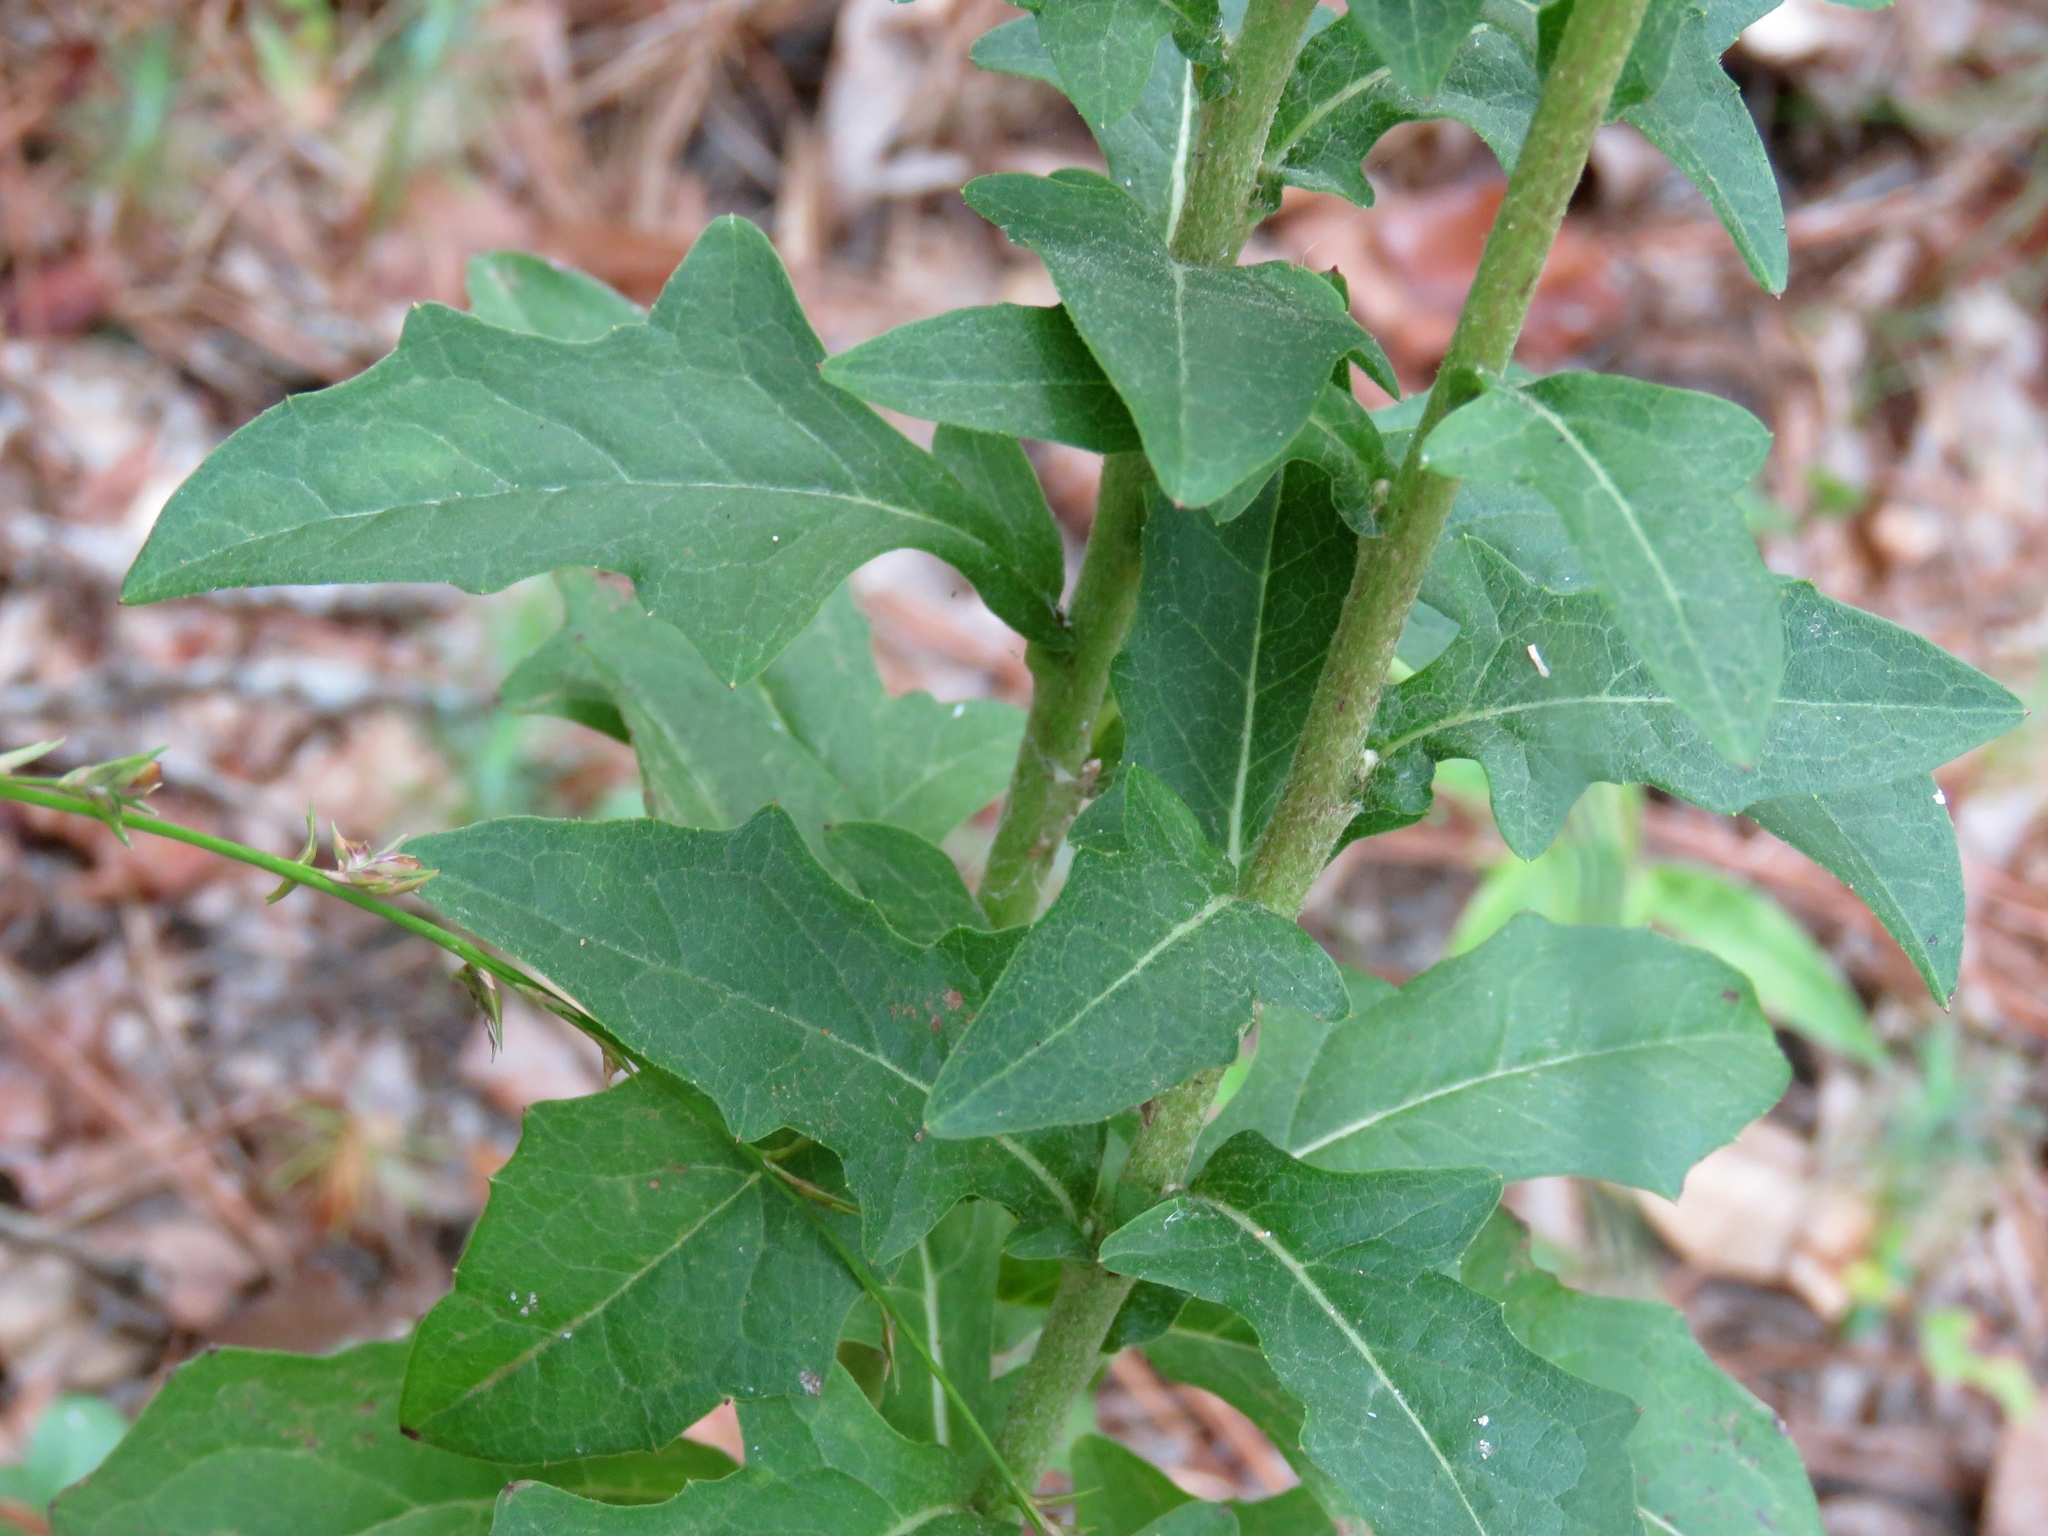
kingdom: Plantae
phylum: Tracheophyta
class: Magnoliopsida
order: Asterales
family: Asteraceae
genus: Nabalus
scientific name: Nabalus barbata
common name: Barbed rattlesnakeroot
